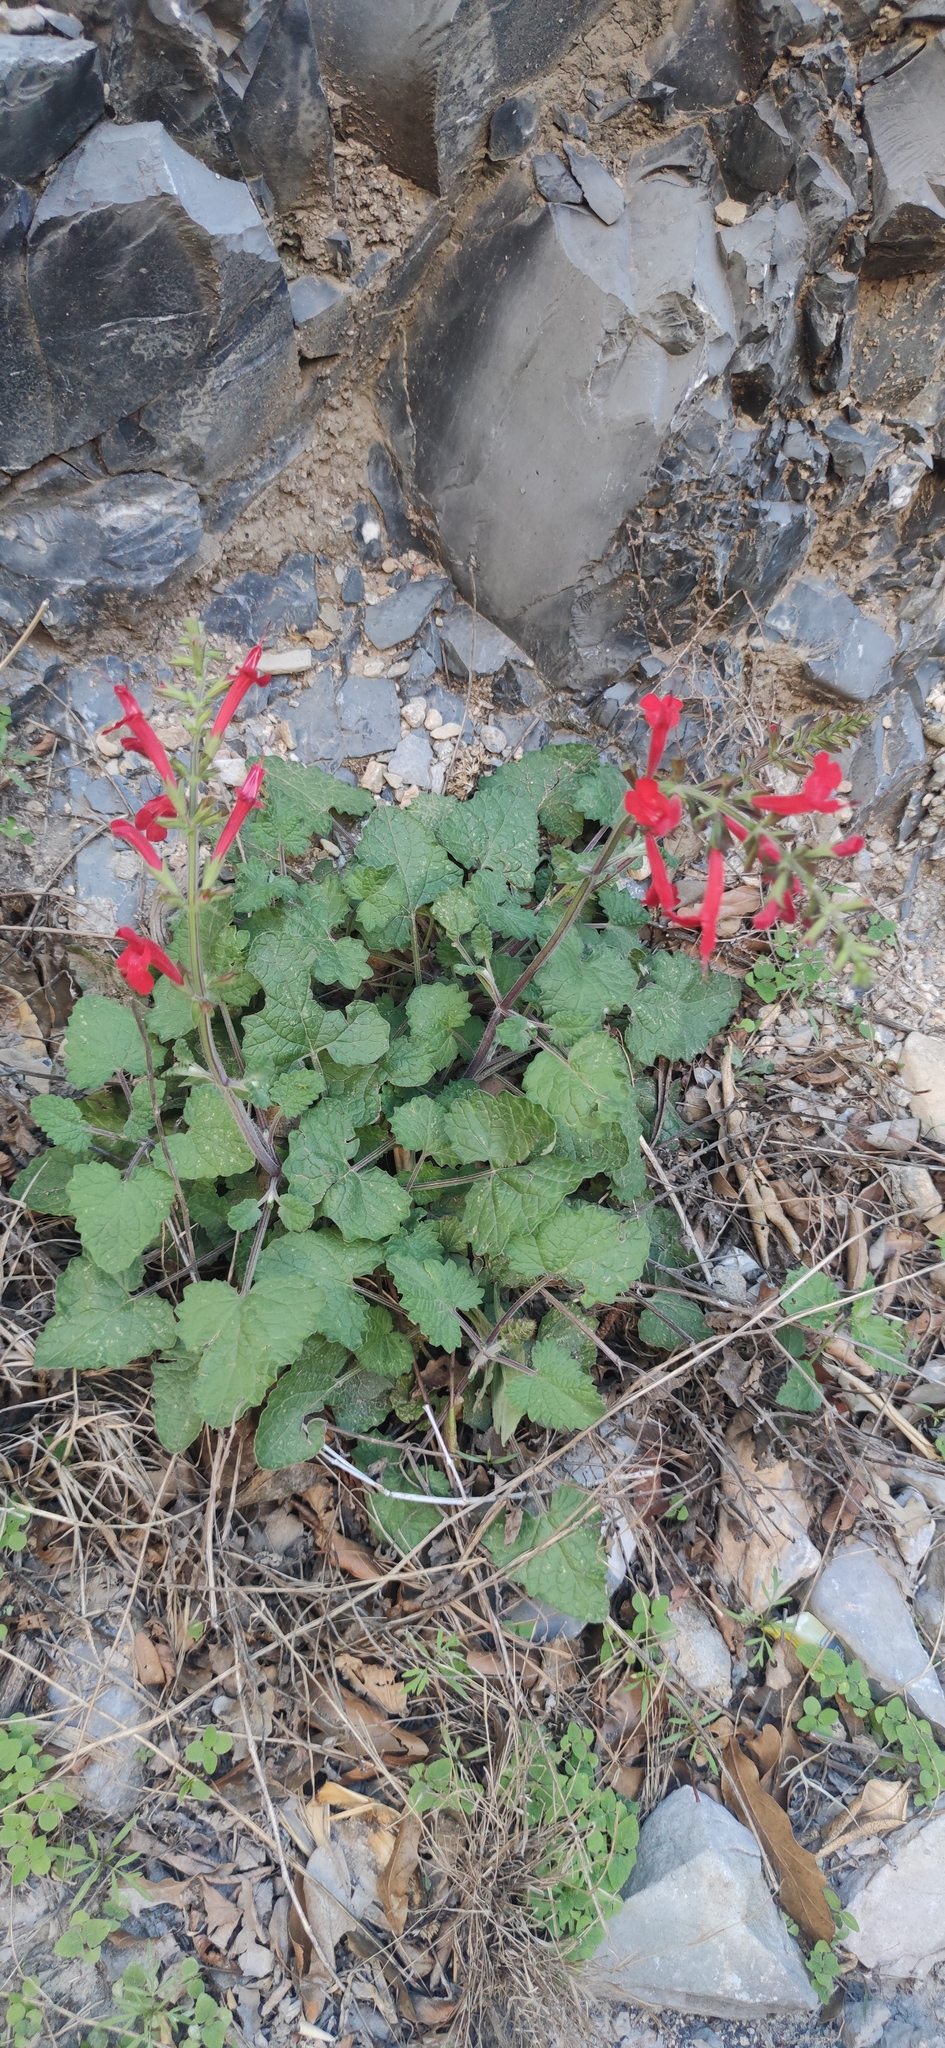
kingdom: Plantae
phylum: Tracheophyta
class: Magnoliopsida
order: Lamiales
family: Lamiaceae
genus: Salvia
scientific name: Salvia roemeriana
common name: Cedar sage
